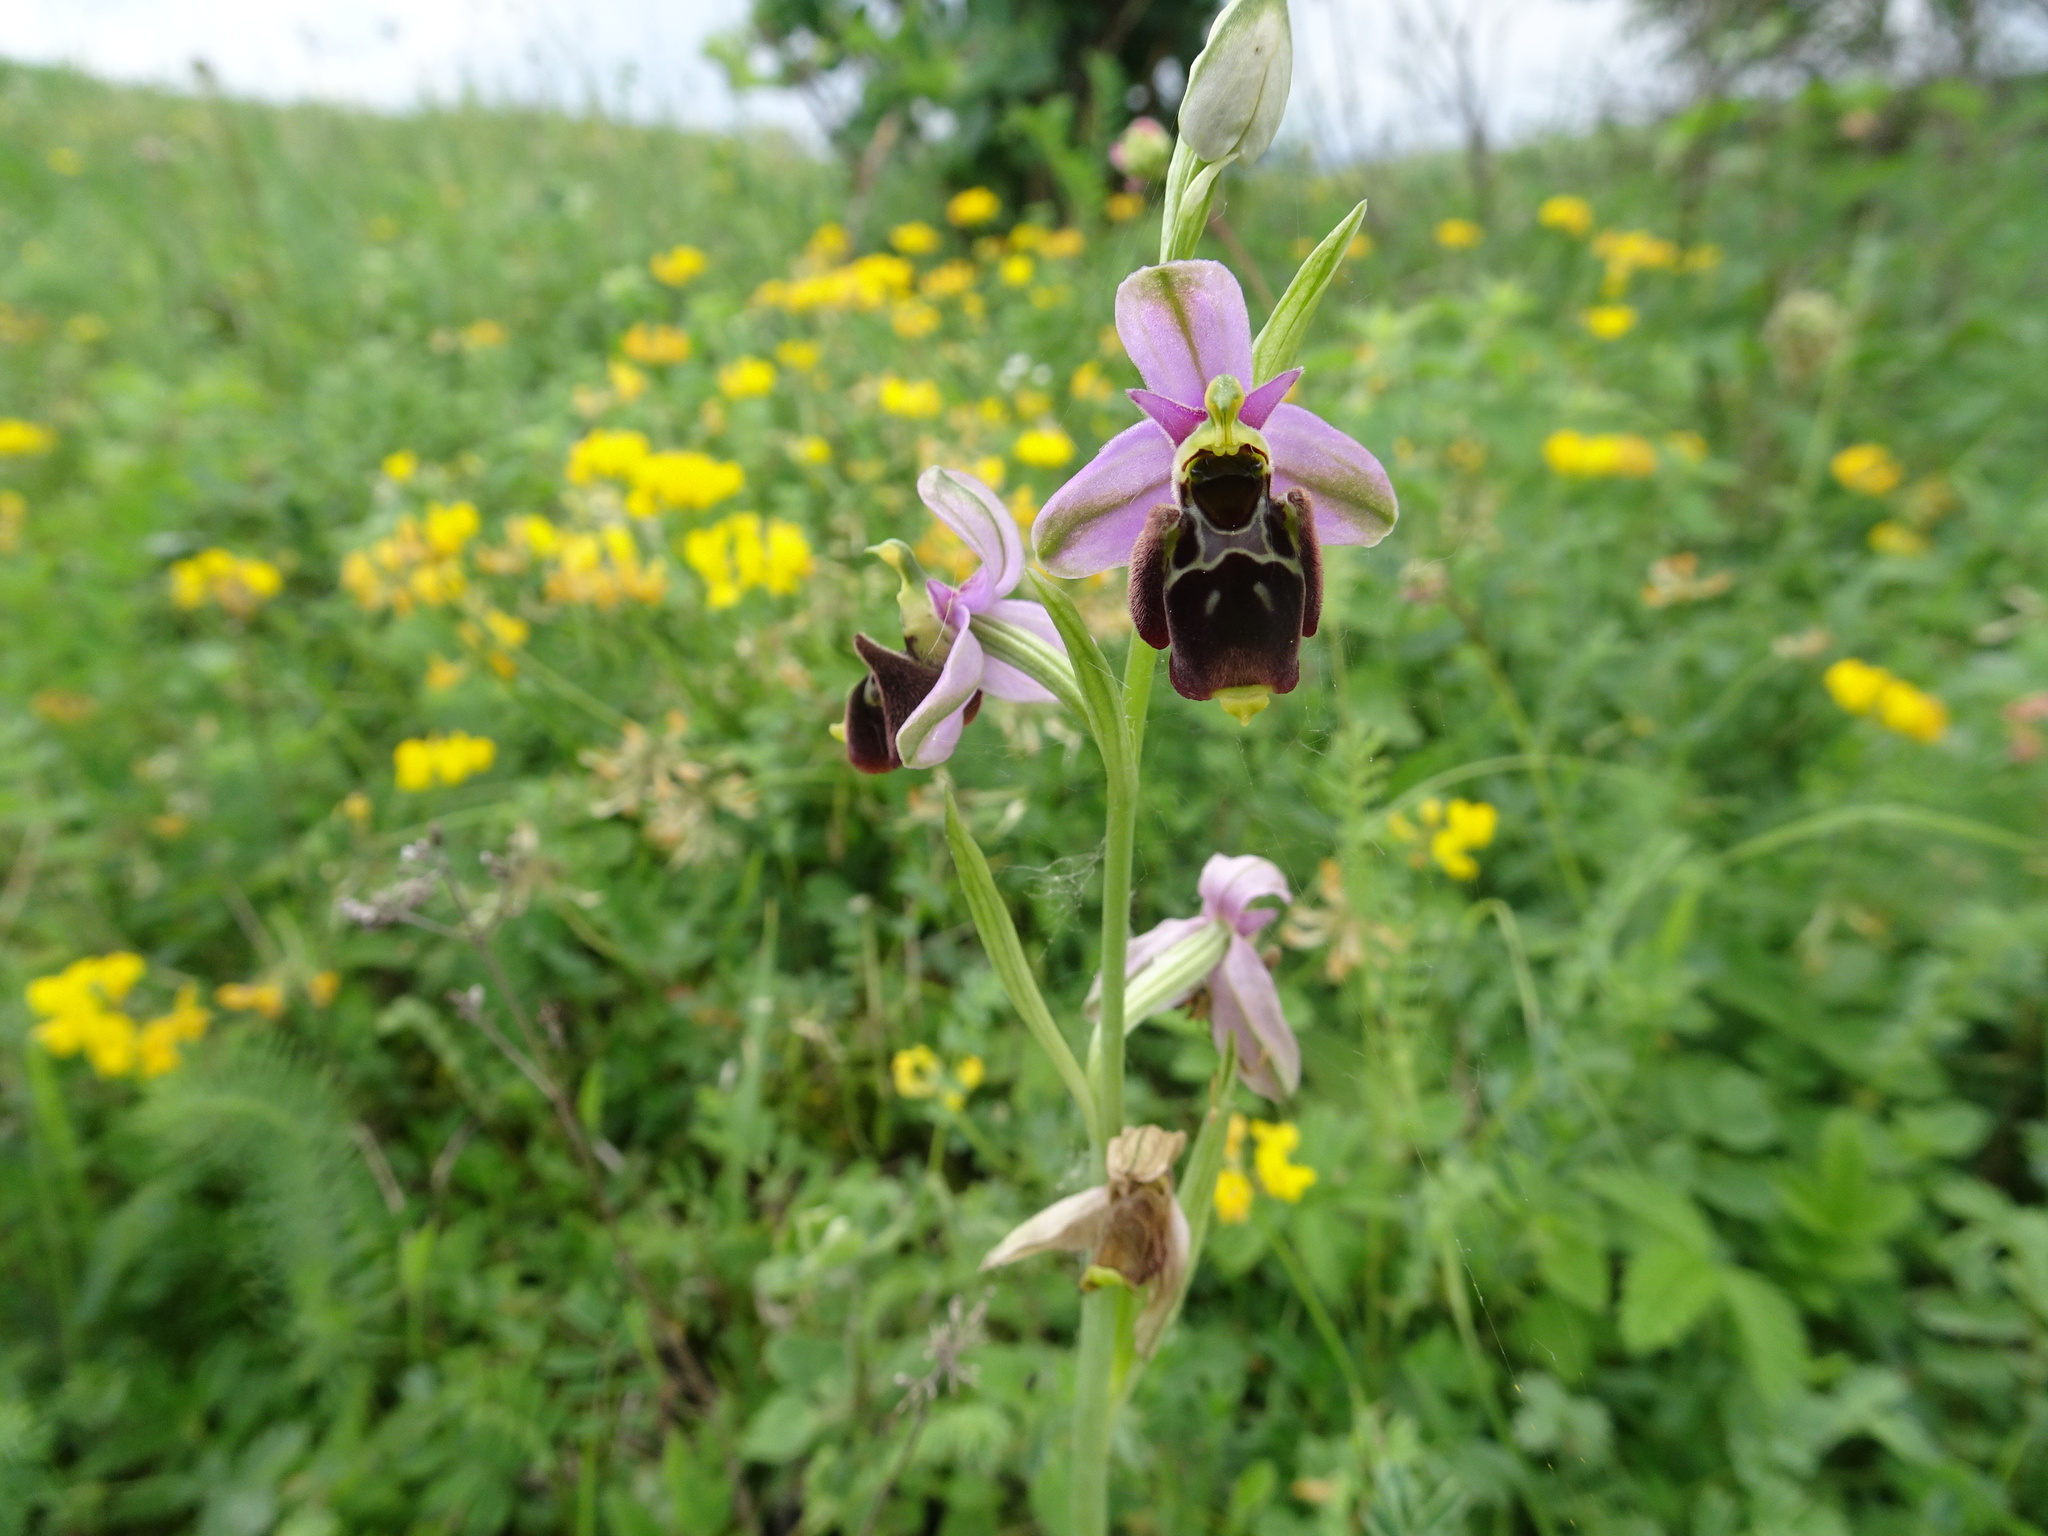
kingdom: Plantae
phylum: Tracheophyta
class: Liliopsida
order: Asparagales
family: Orchidaceae
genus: Ophrys
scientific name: Ophrys holosericea
